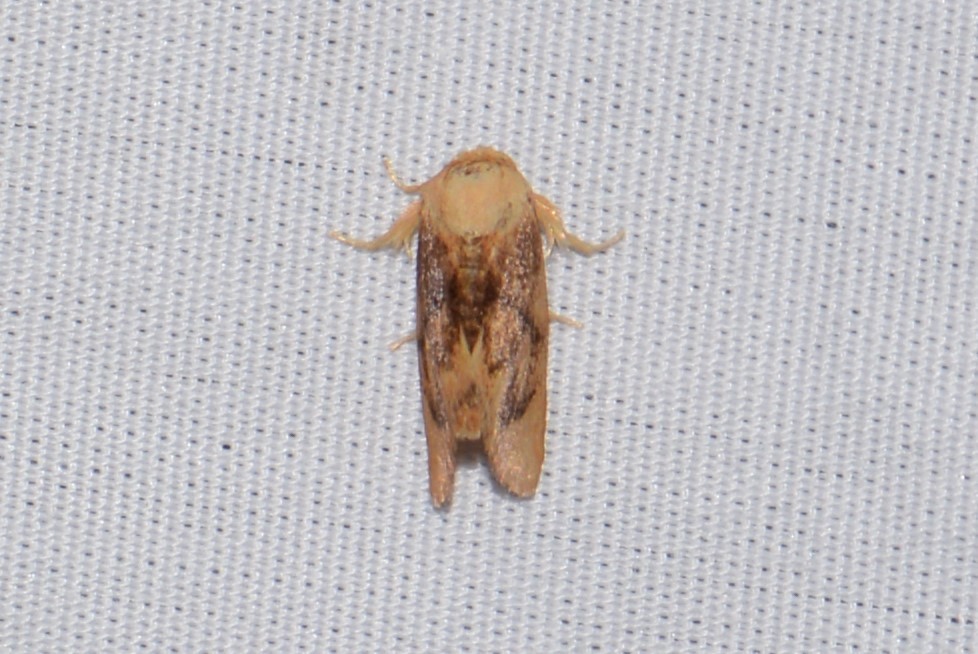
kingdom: Animalia
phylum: Arthropoda
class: Insecta
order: Lepidoptera
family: Limacodidae
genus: Tortricidia
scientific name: Tortricidia flexuosa
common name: Abbreviated button slug moth
